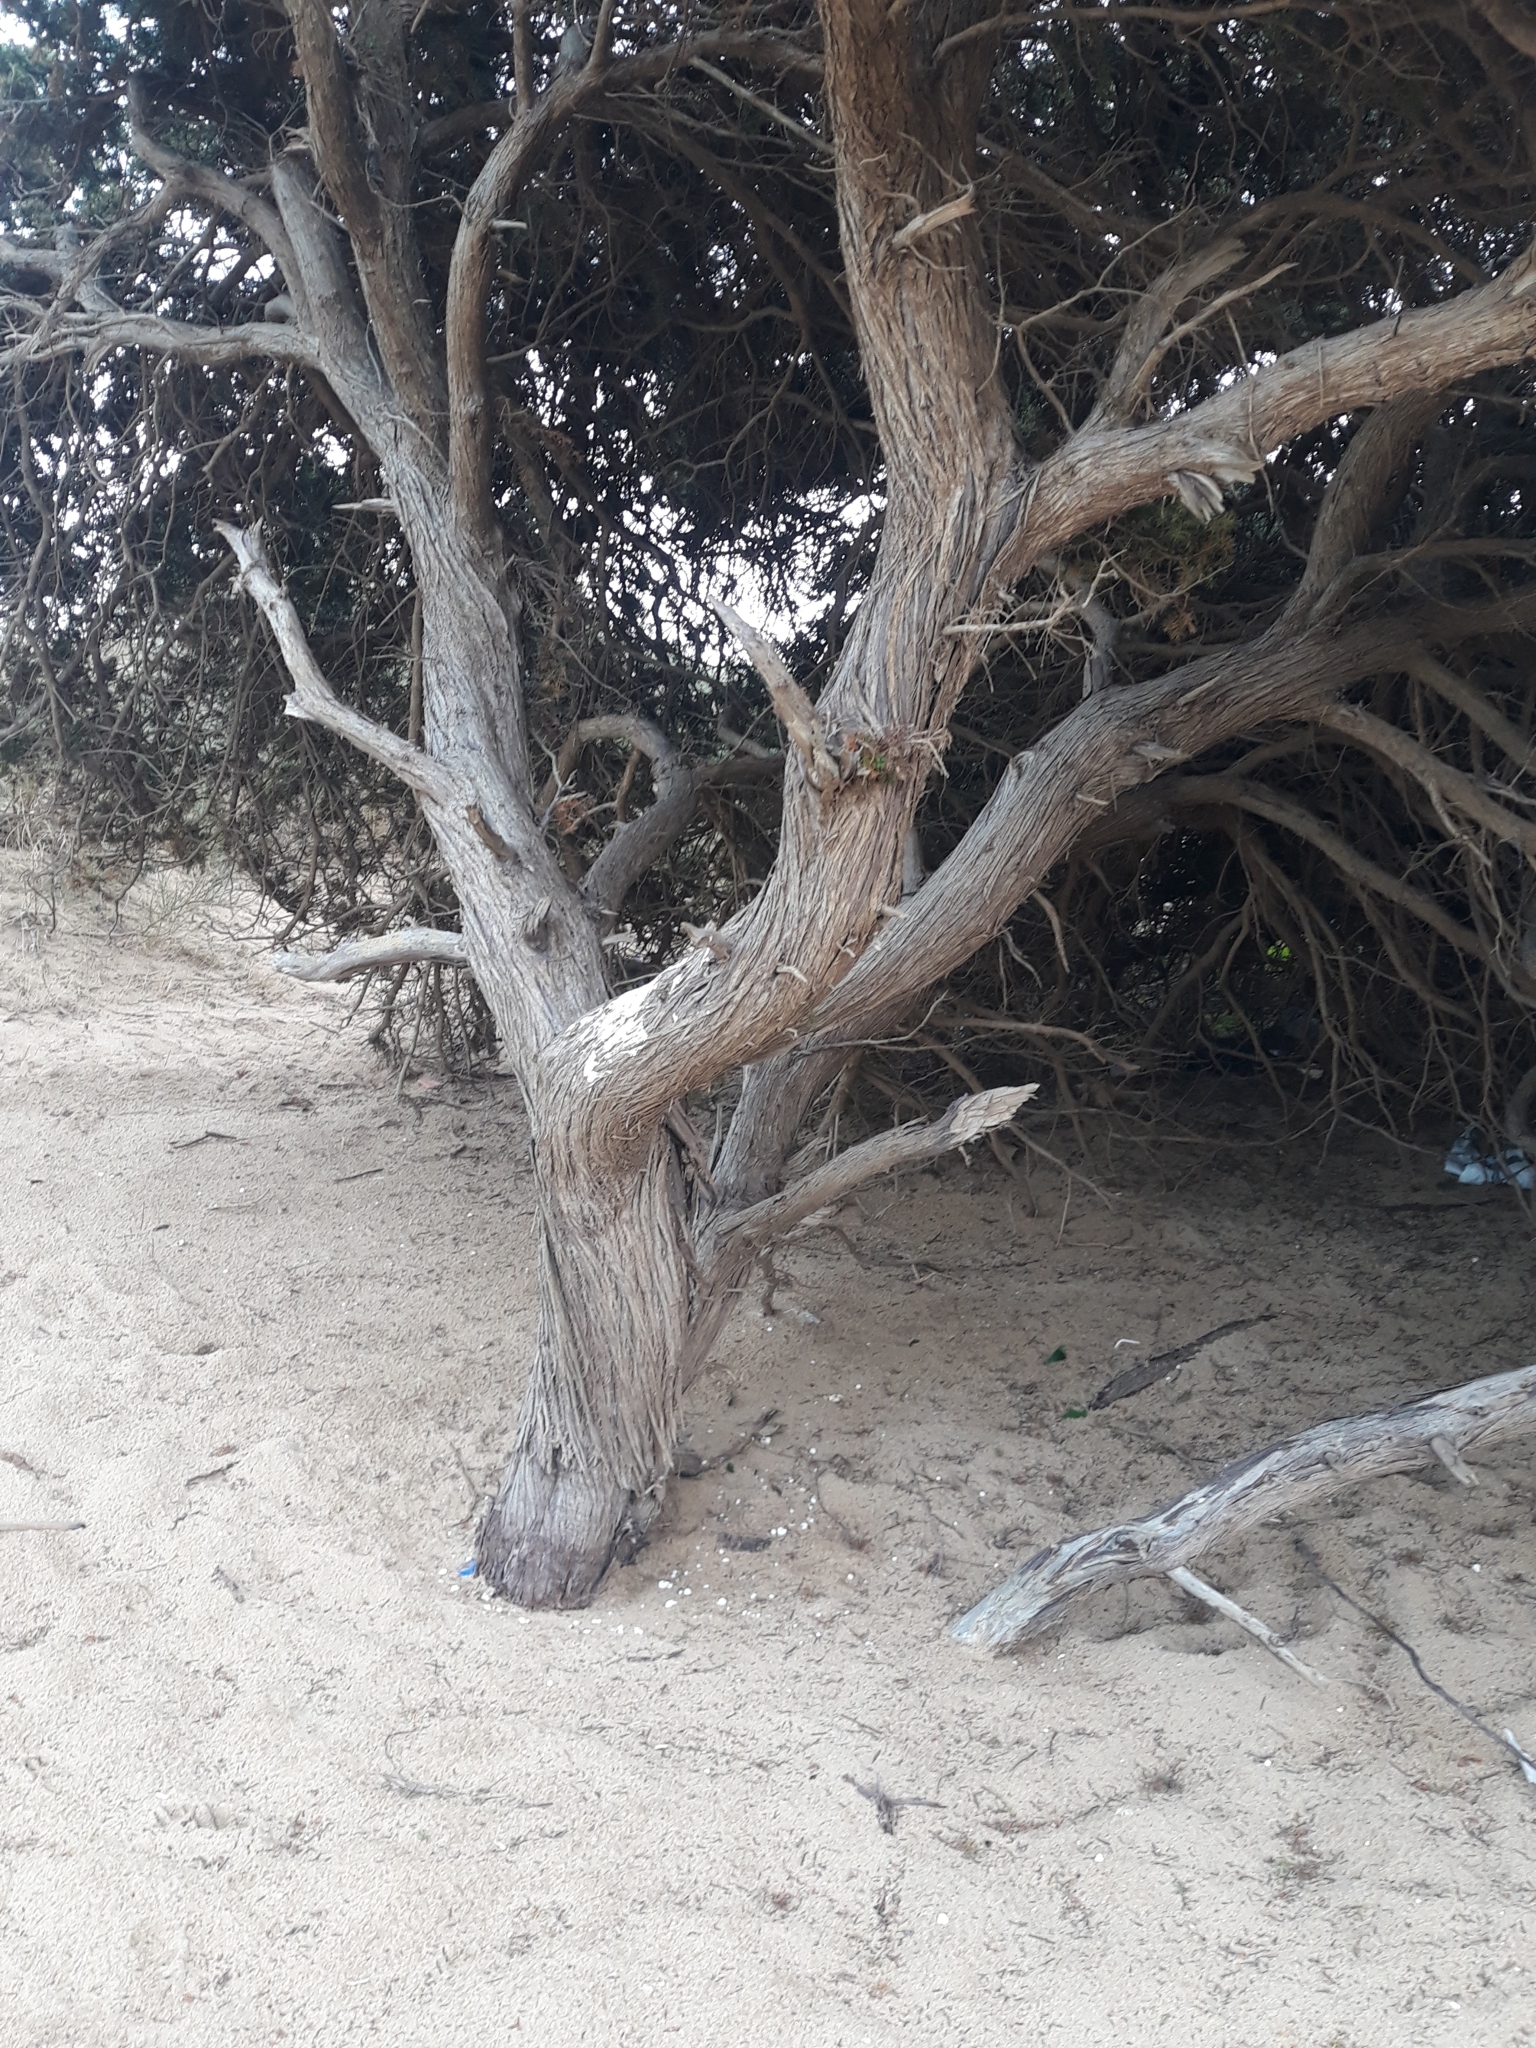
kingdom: Plantae
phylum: Tracheophyta
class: Pinopsida
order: Pinales
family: Cupressaceae
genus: Juniperus
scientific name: Juniperus oxycedrus
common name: Prickly juniper
